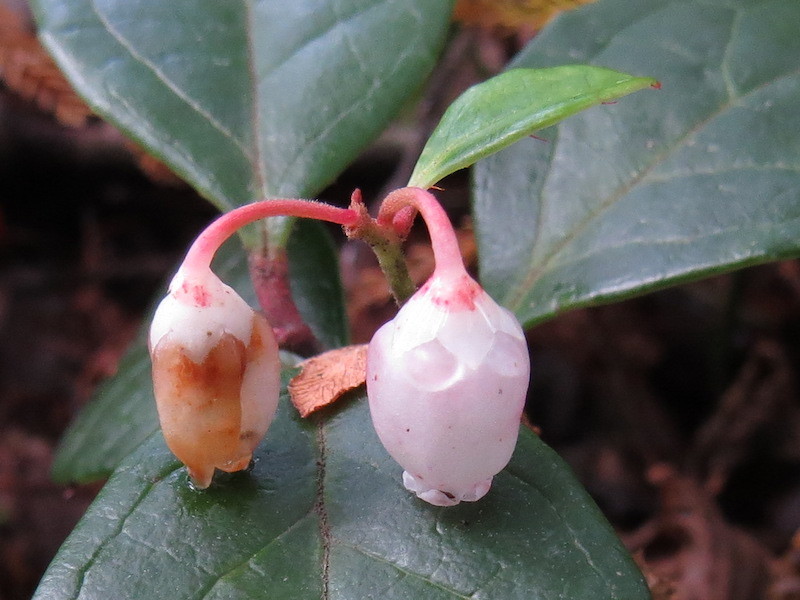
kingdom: Plantae
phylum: Tracheophyta
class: Magnoliopsida
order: Ericales
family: Ericaceae
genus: Gaultheria
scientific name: Gaultheria procumbens
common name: Checkerberry
